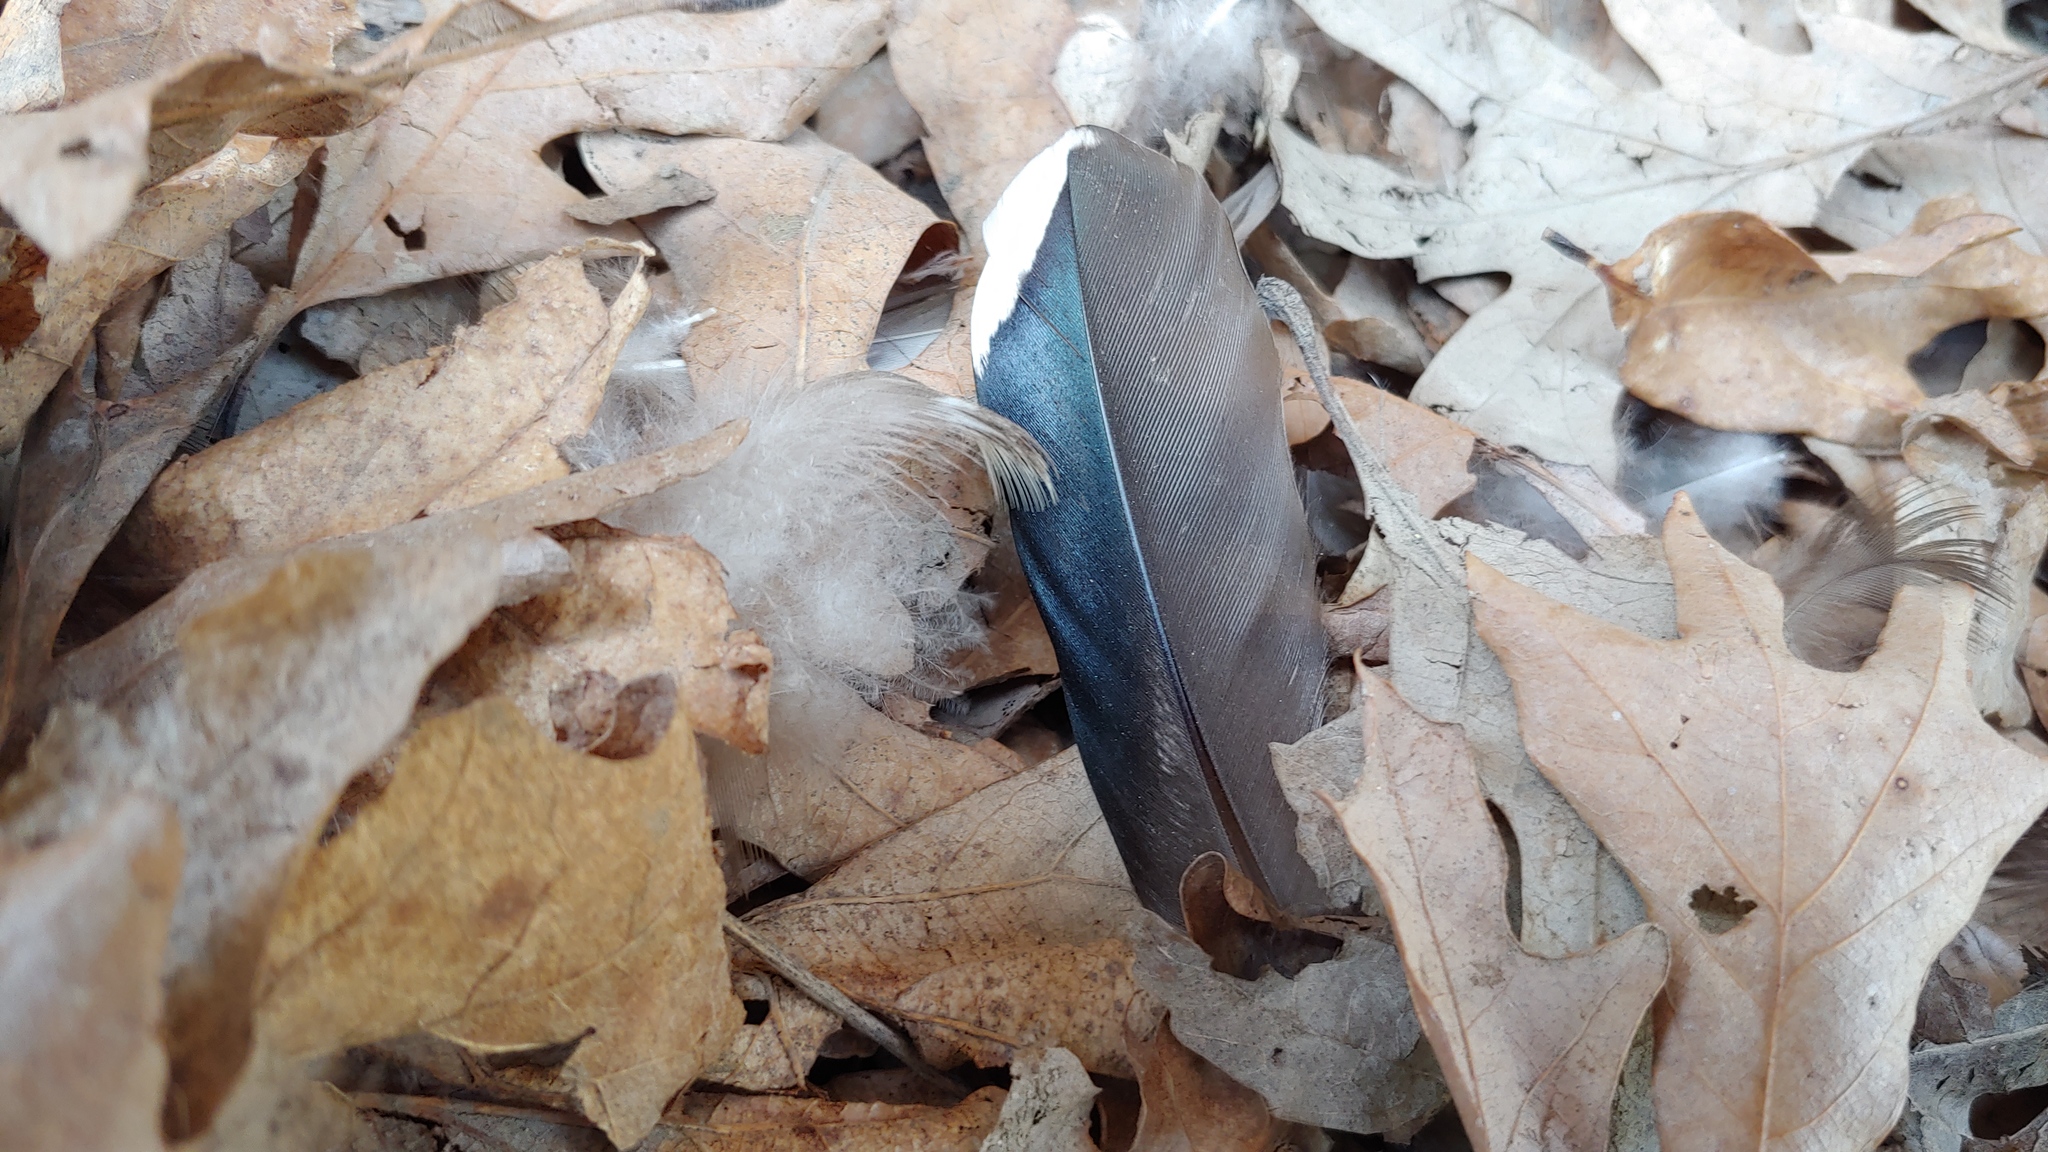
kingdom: Animalia
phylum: Chordata
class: Aves
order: Anseriformes
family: Anatidae
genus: Aix
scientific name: Aix sponsa
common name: Wood duck
